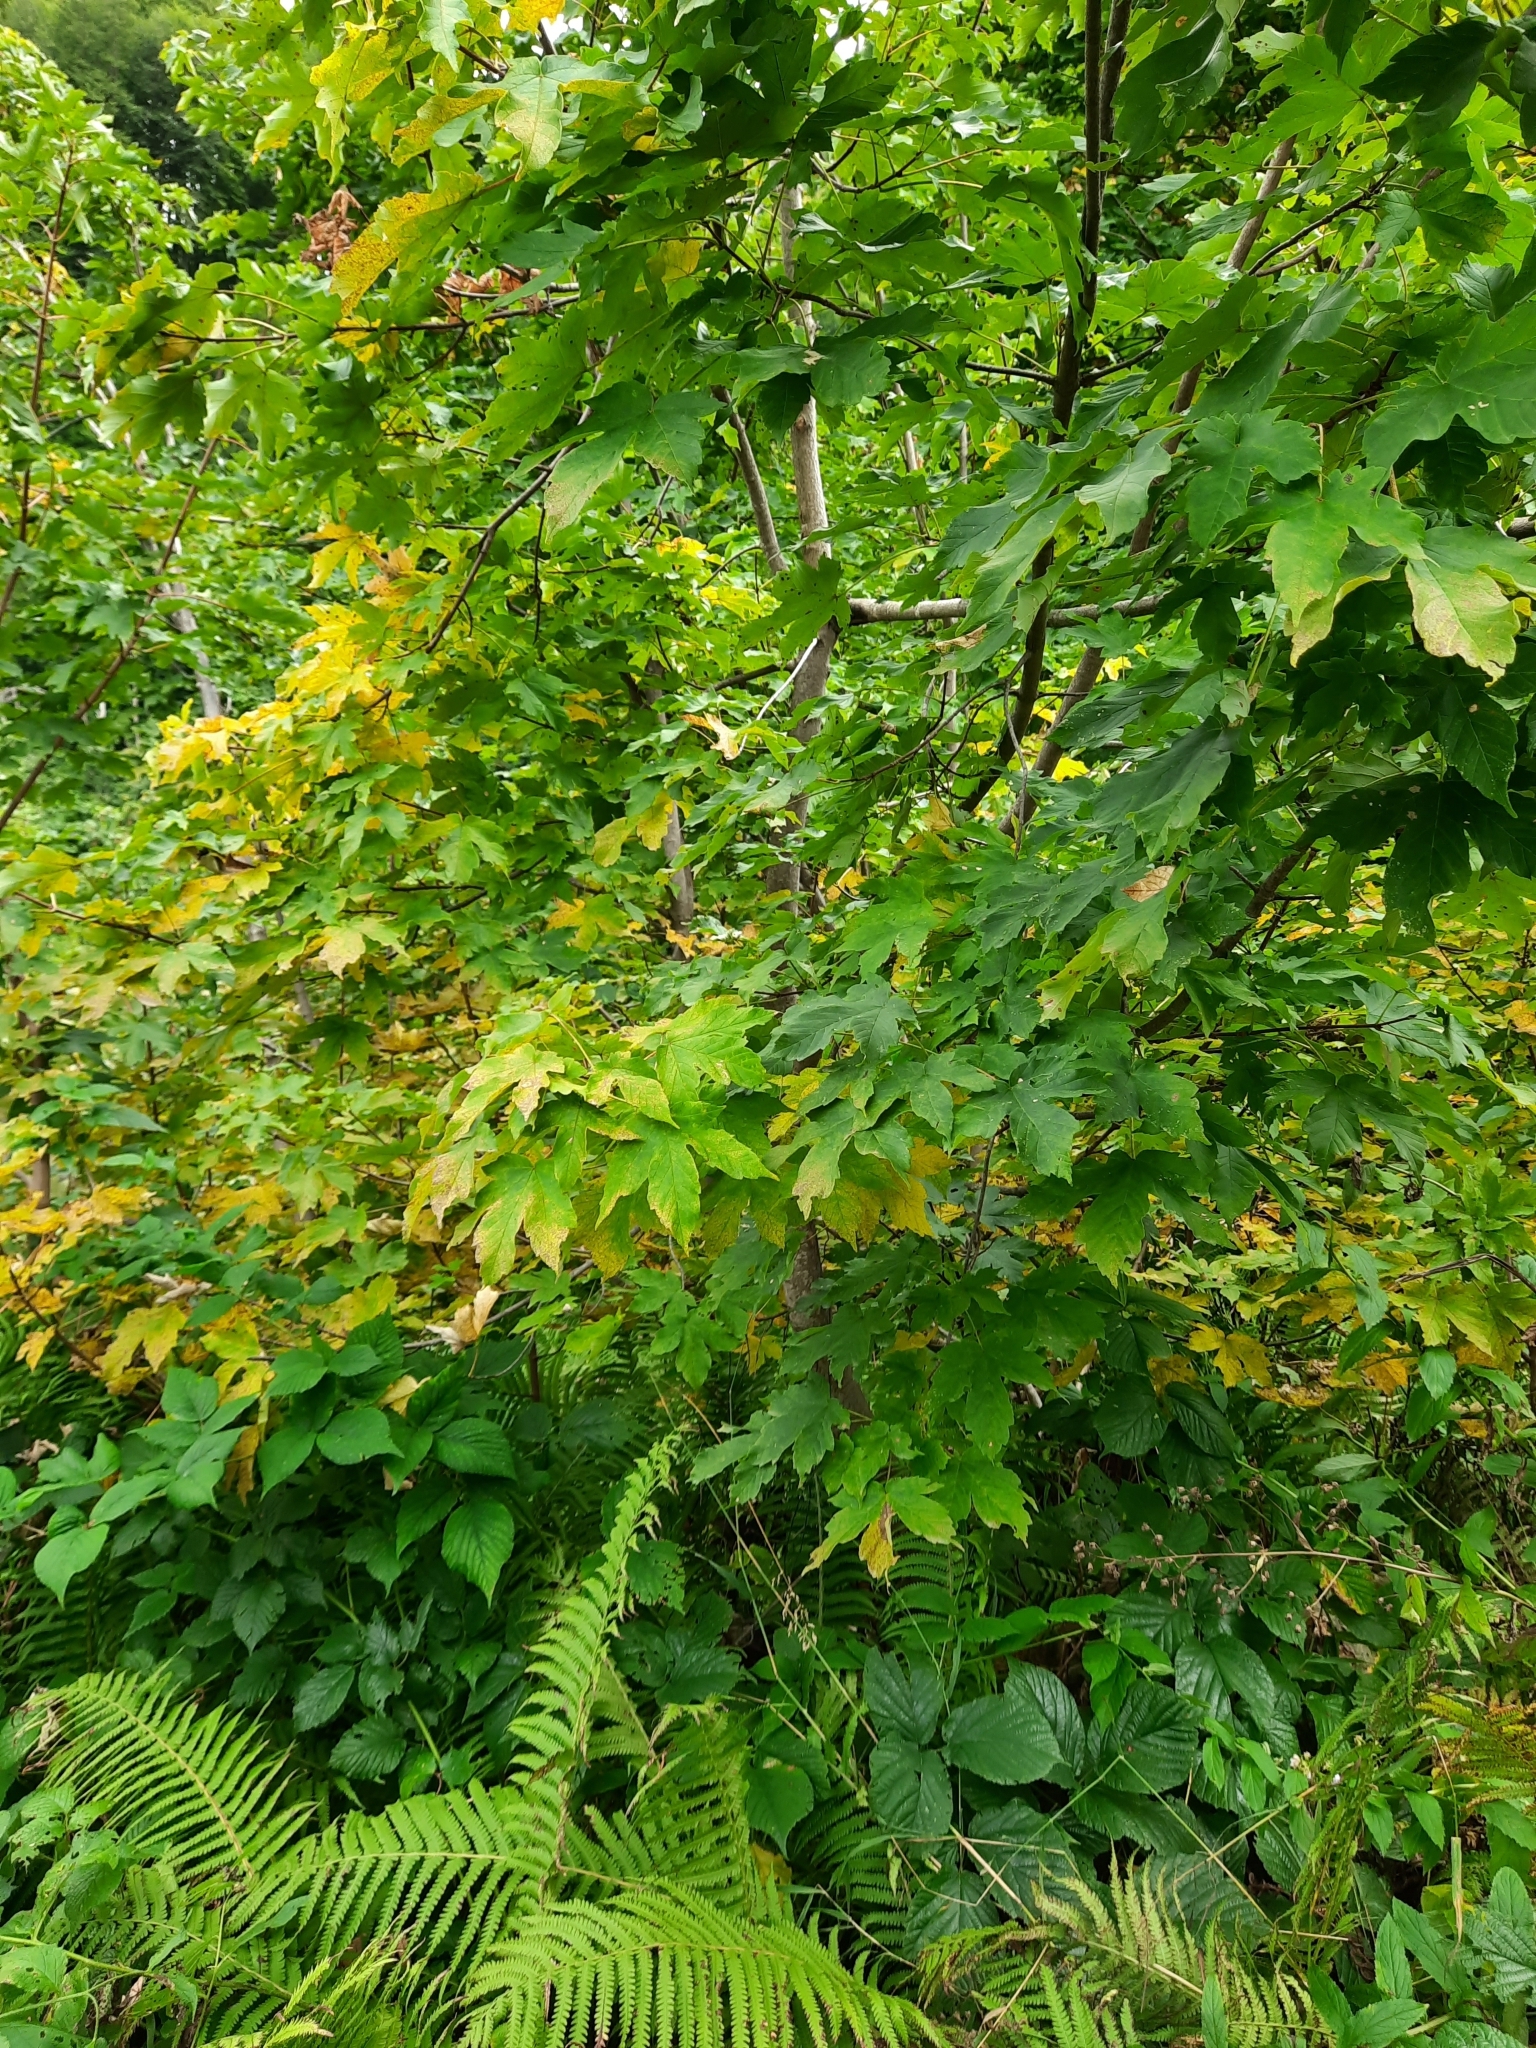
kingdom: Plantae
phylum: Tracheophyta
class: Magnoliopsida
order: Sapindales
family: Sapindaceae
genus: Acer
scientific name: Acer pseudoplatanus
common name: Sycamore
